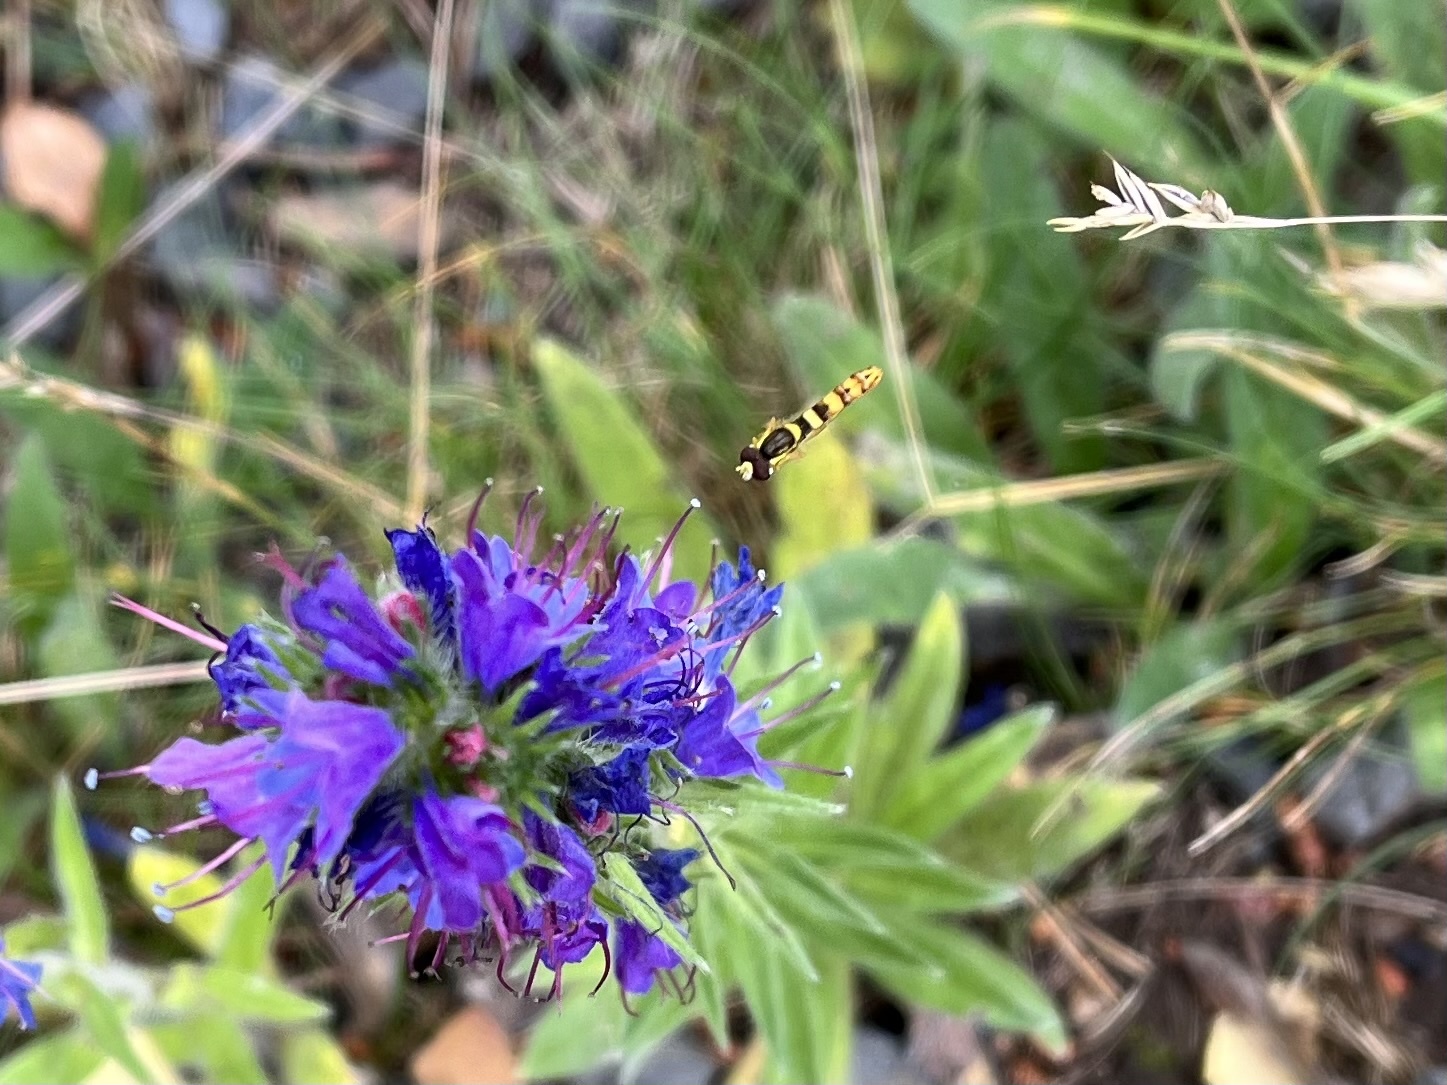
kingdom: Animalia
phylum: Arthropoda
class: Insecta
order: Diptera
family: Syrphidae
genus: Sphaerophoria
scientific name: Sphaerophoria scripta
